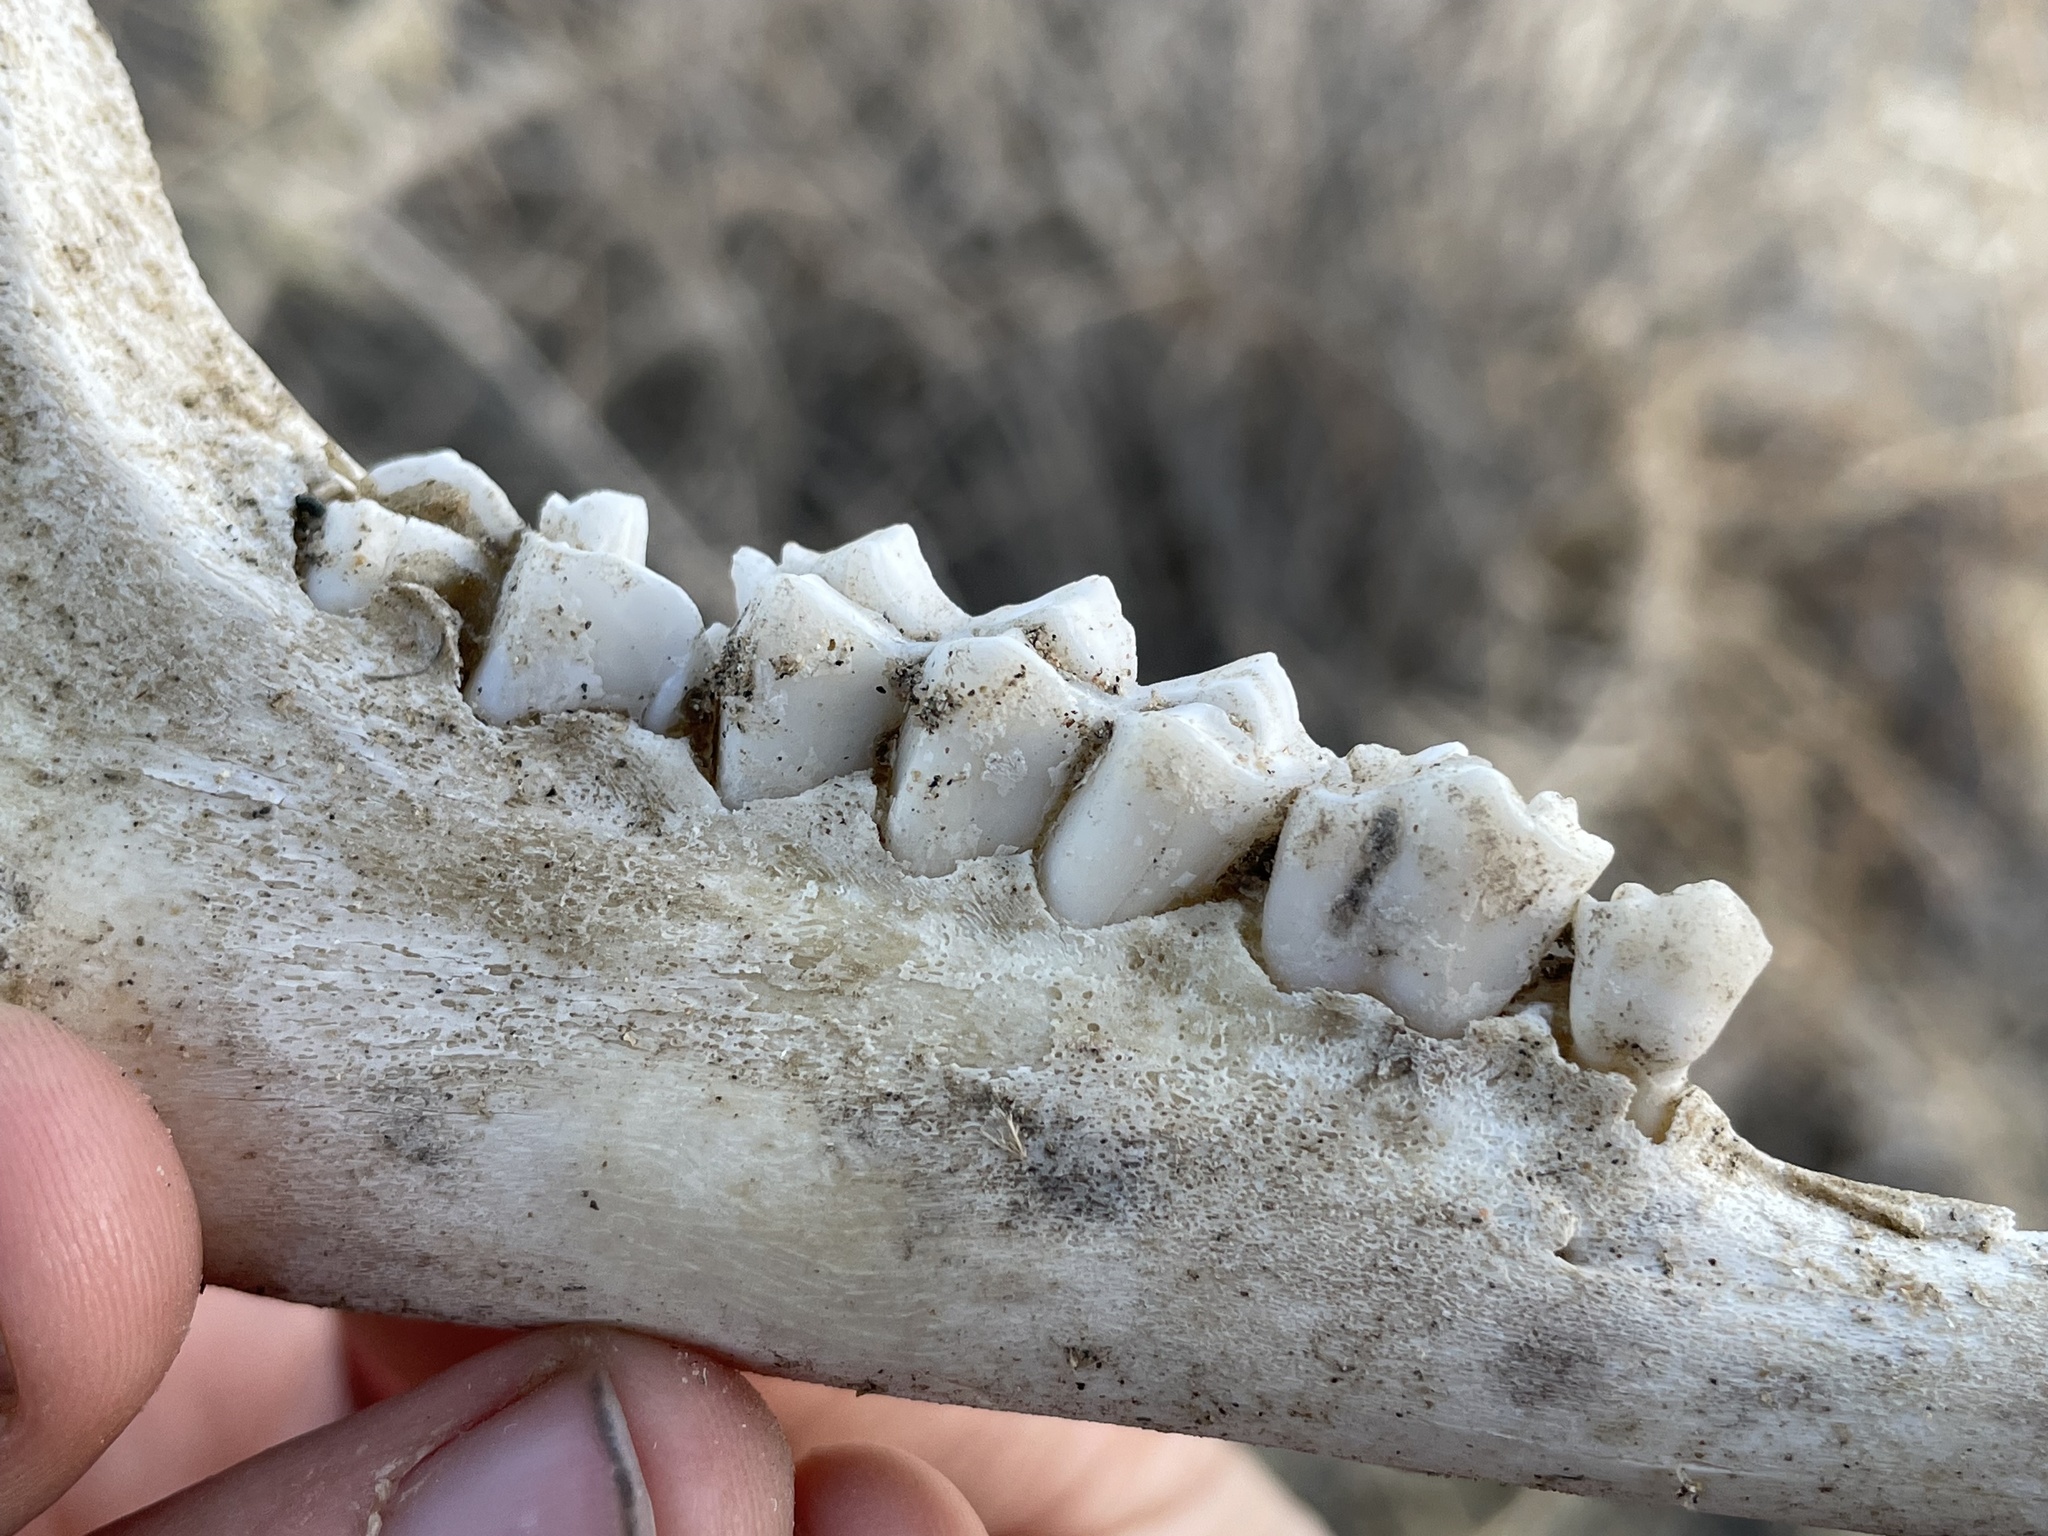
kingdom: Animalia
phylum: Chordata
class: Mammalia
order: Artiodactyla
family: Cervidae
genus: Odocoileus
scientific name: Odocoileus hemionus
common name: Mule deer
